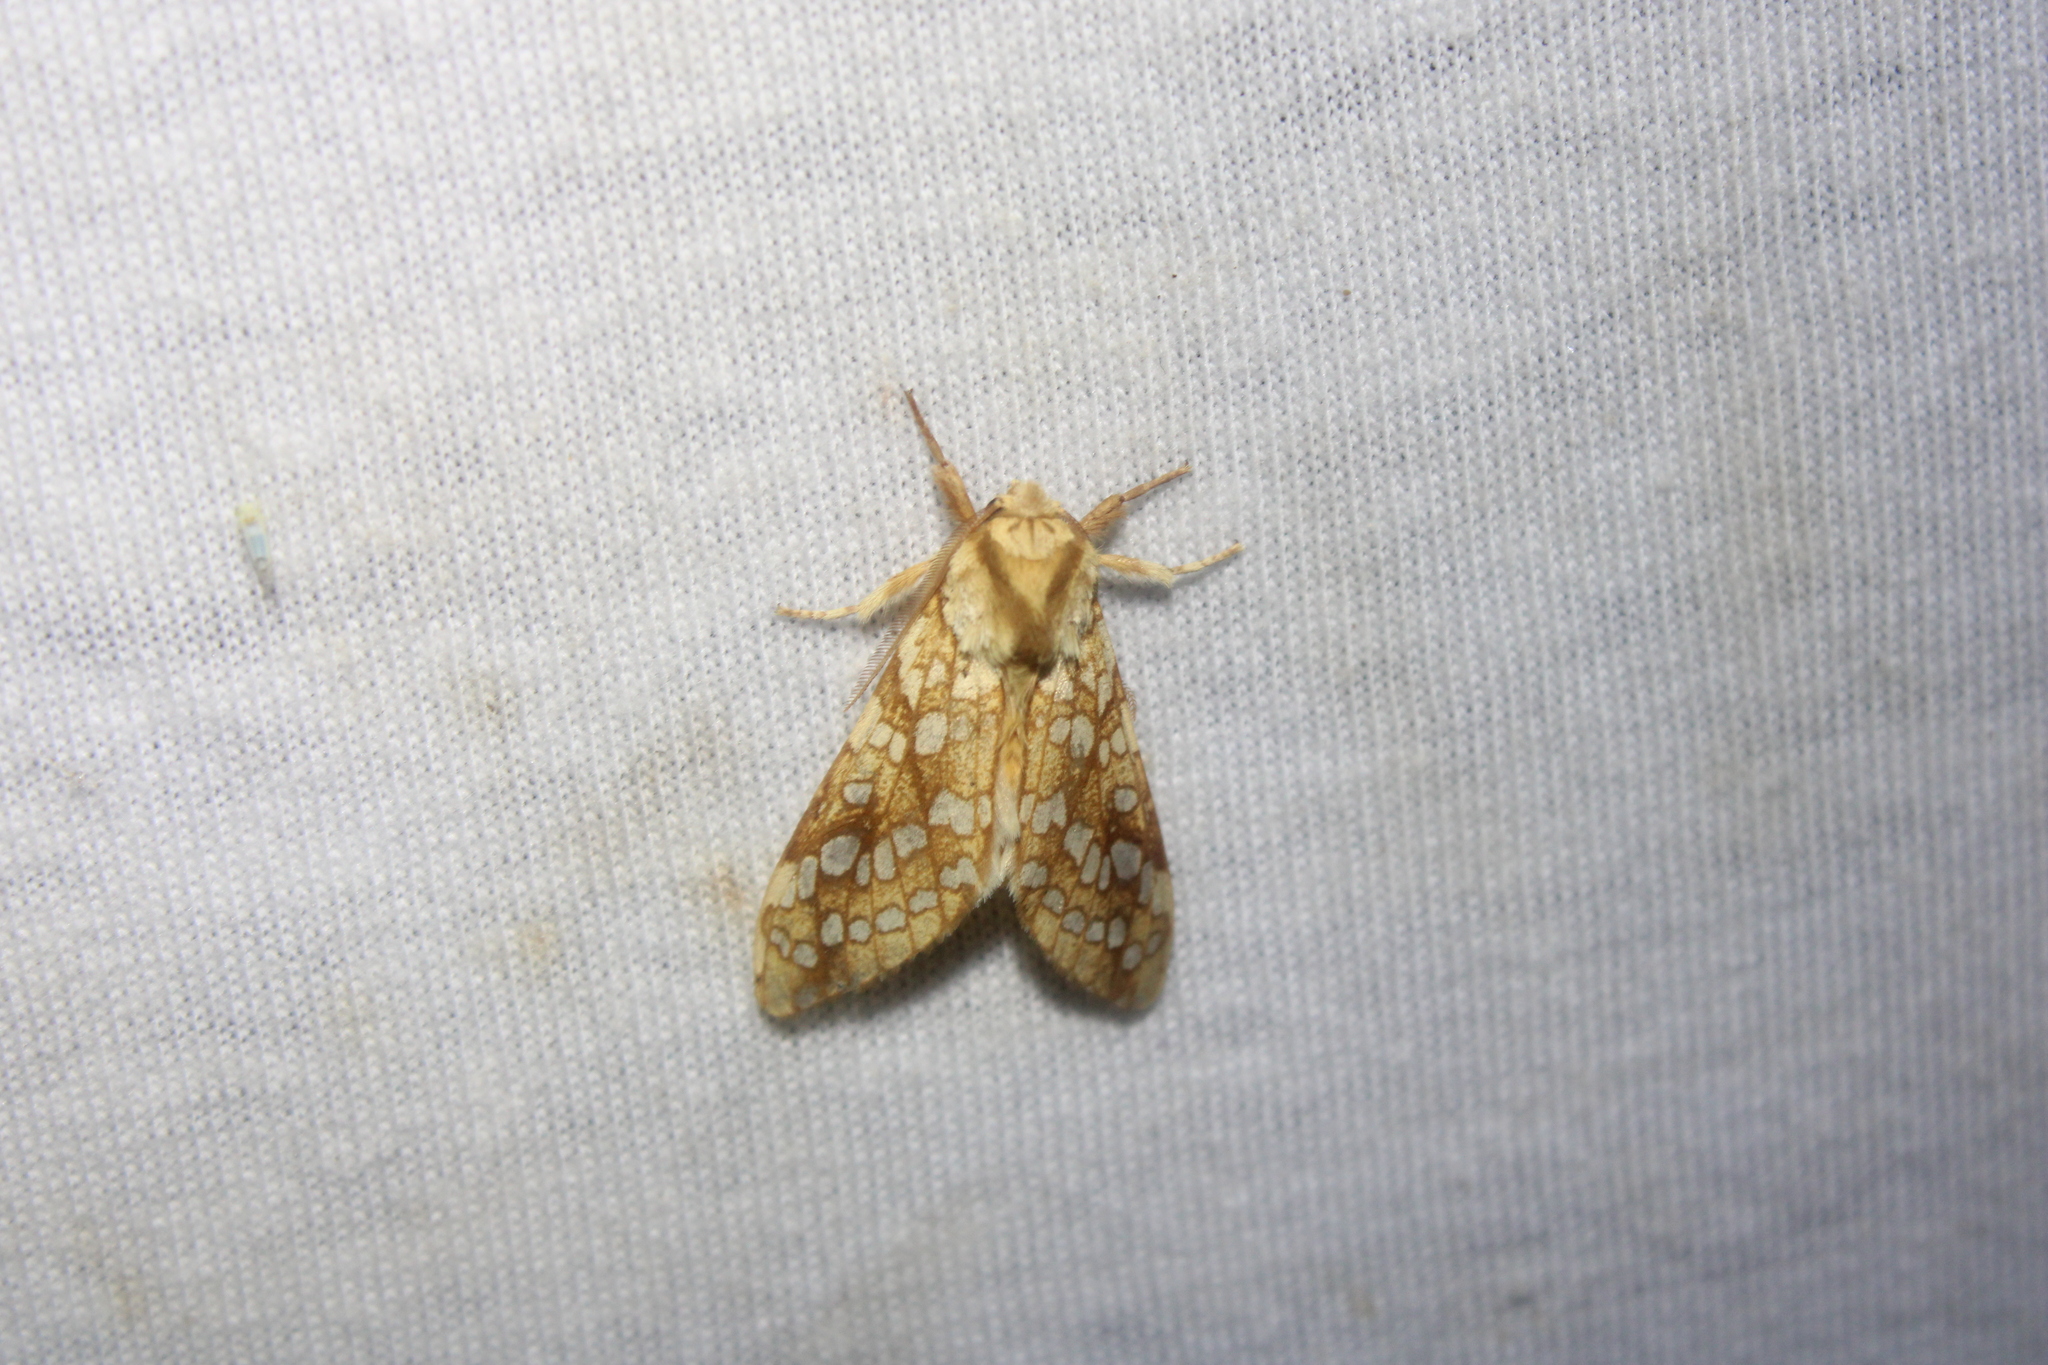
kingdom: Animalia
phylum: Arthropoda
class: Insecta
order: Lepidoptera
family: Erebidae
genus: Lophocampa
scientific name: Lophocampa caryae
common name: Hickory tussock moth
